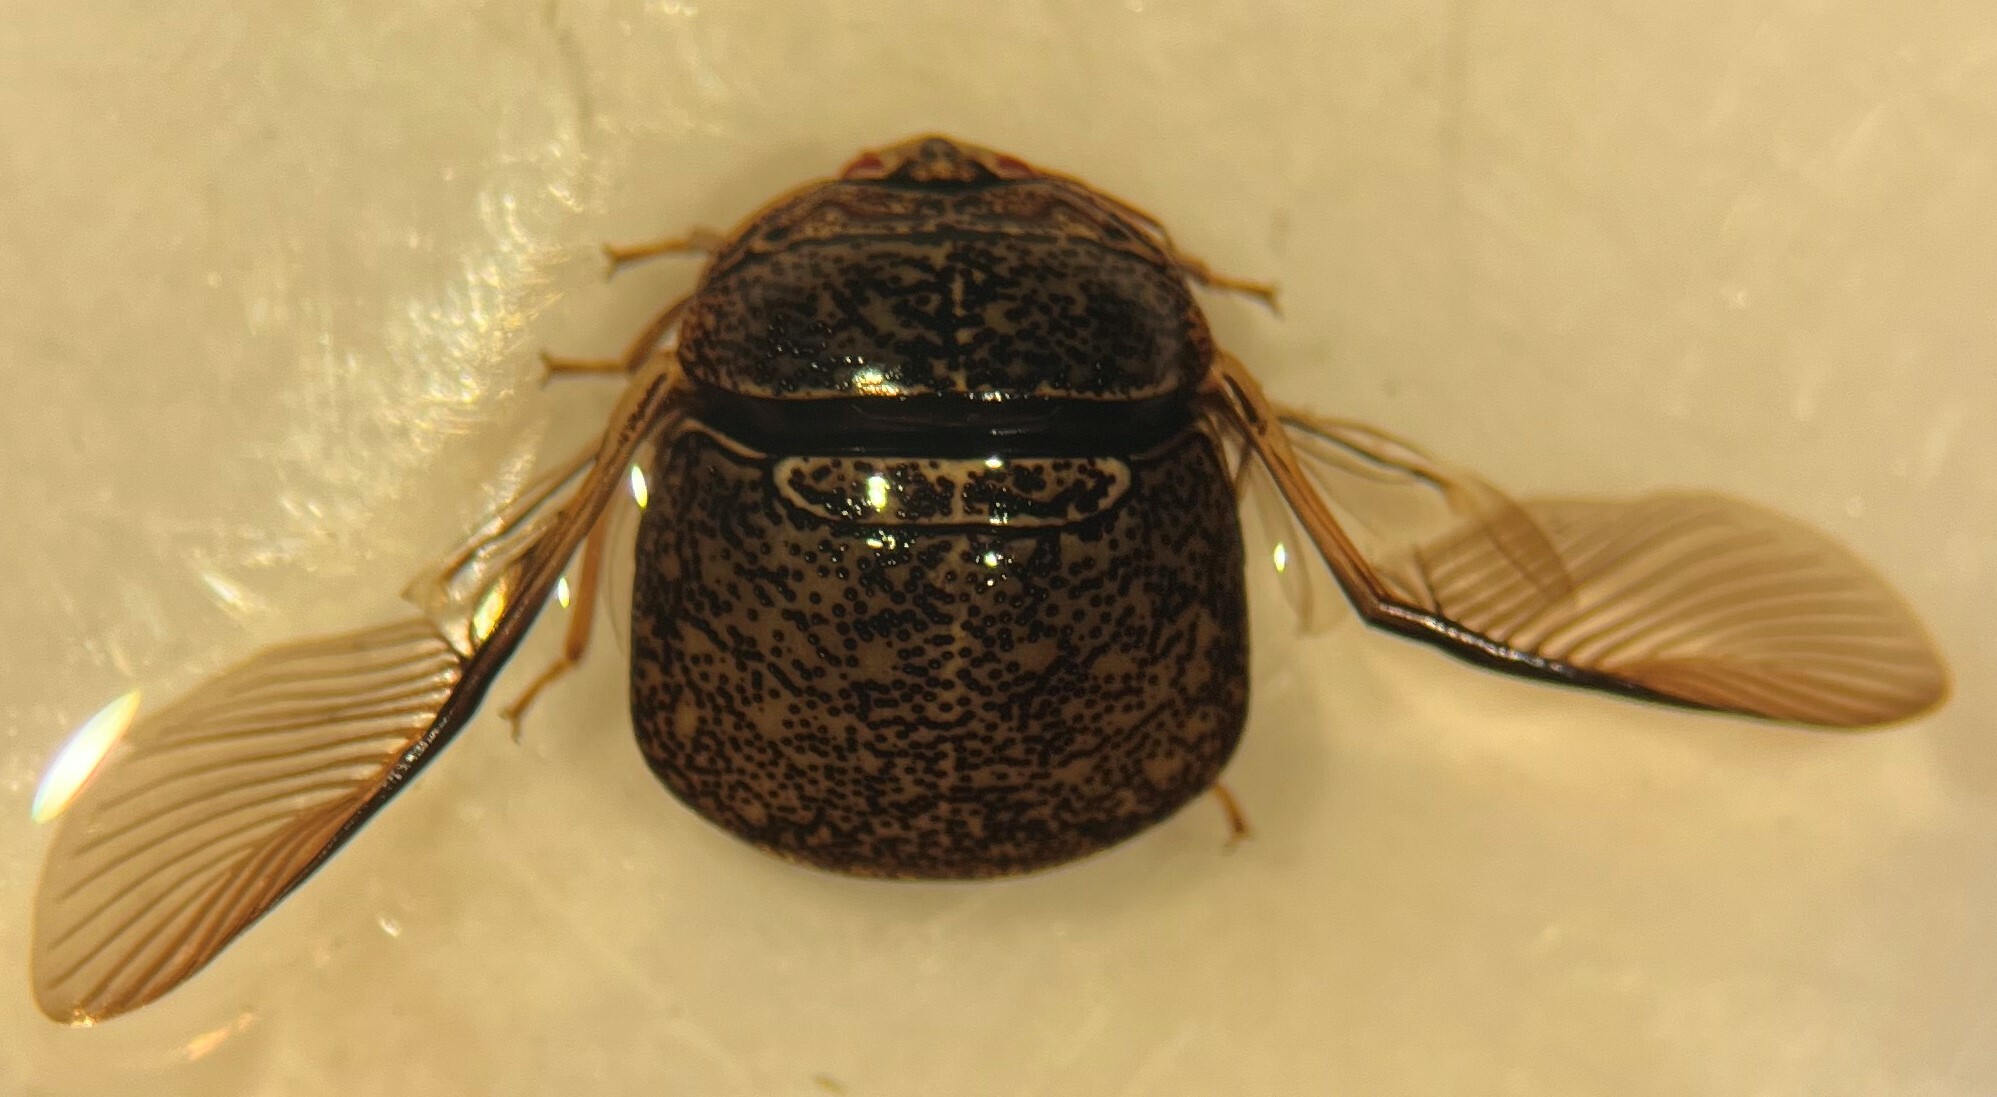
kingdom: Animalia
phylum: Arthropoda
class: Insecta
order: Hemiptera
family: Plataspidae
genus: Megacopta
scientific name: Megacopta cribraria
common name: Bean plataspid
